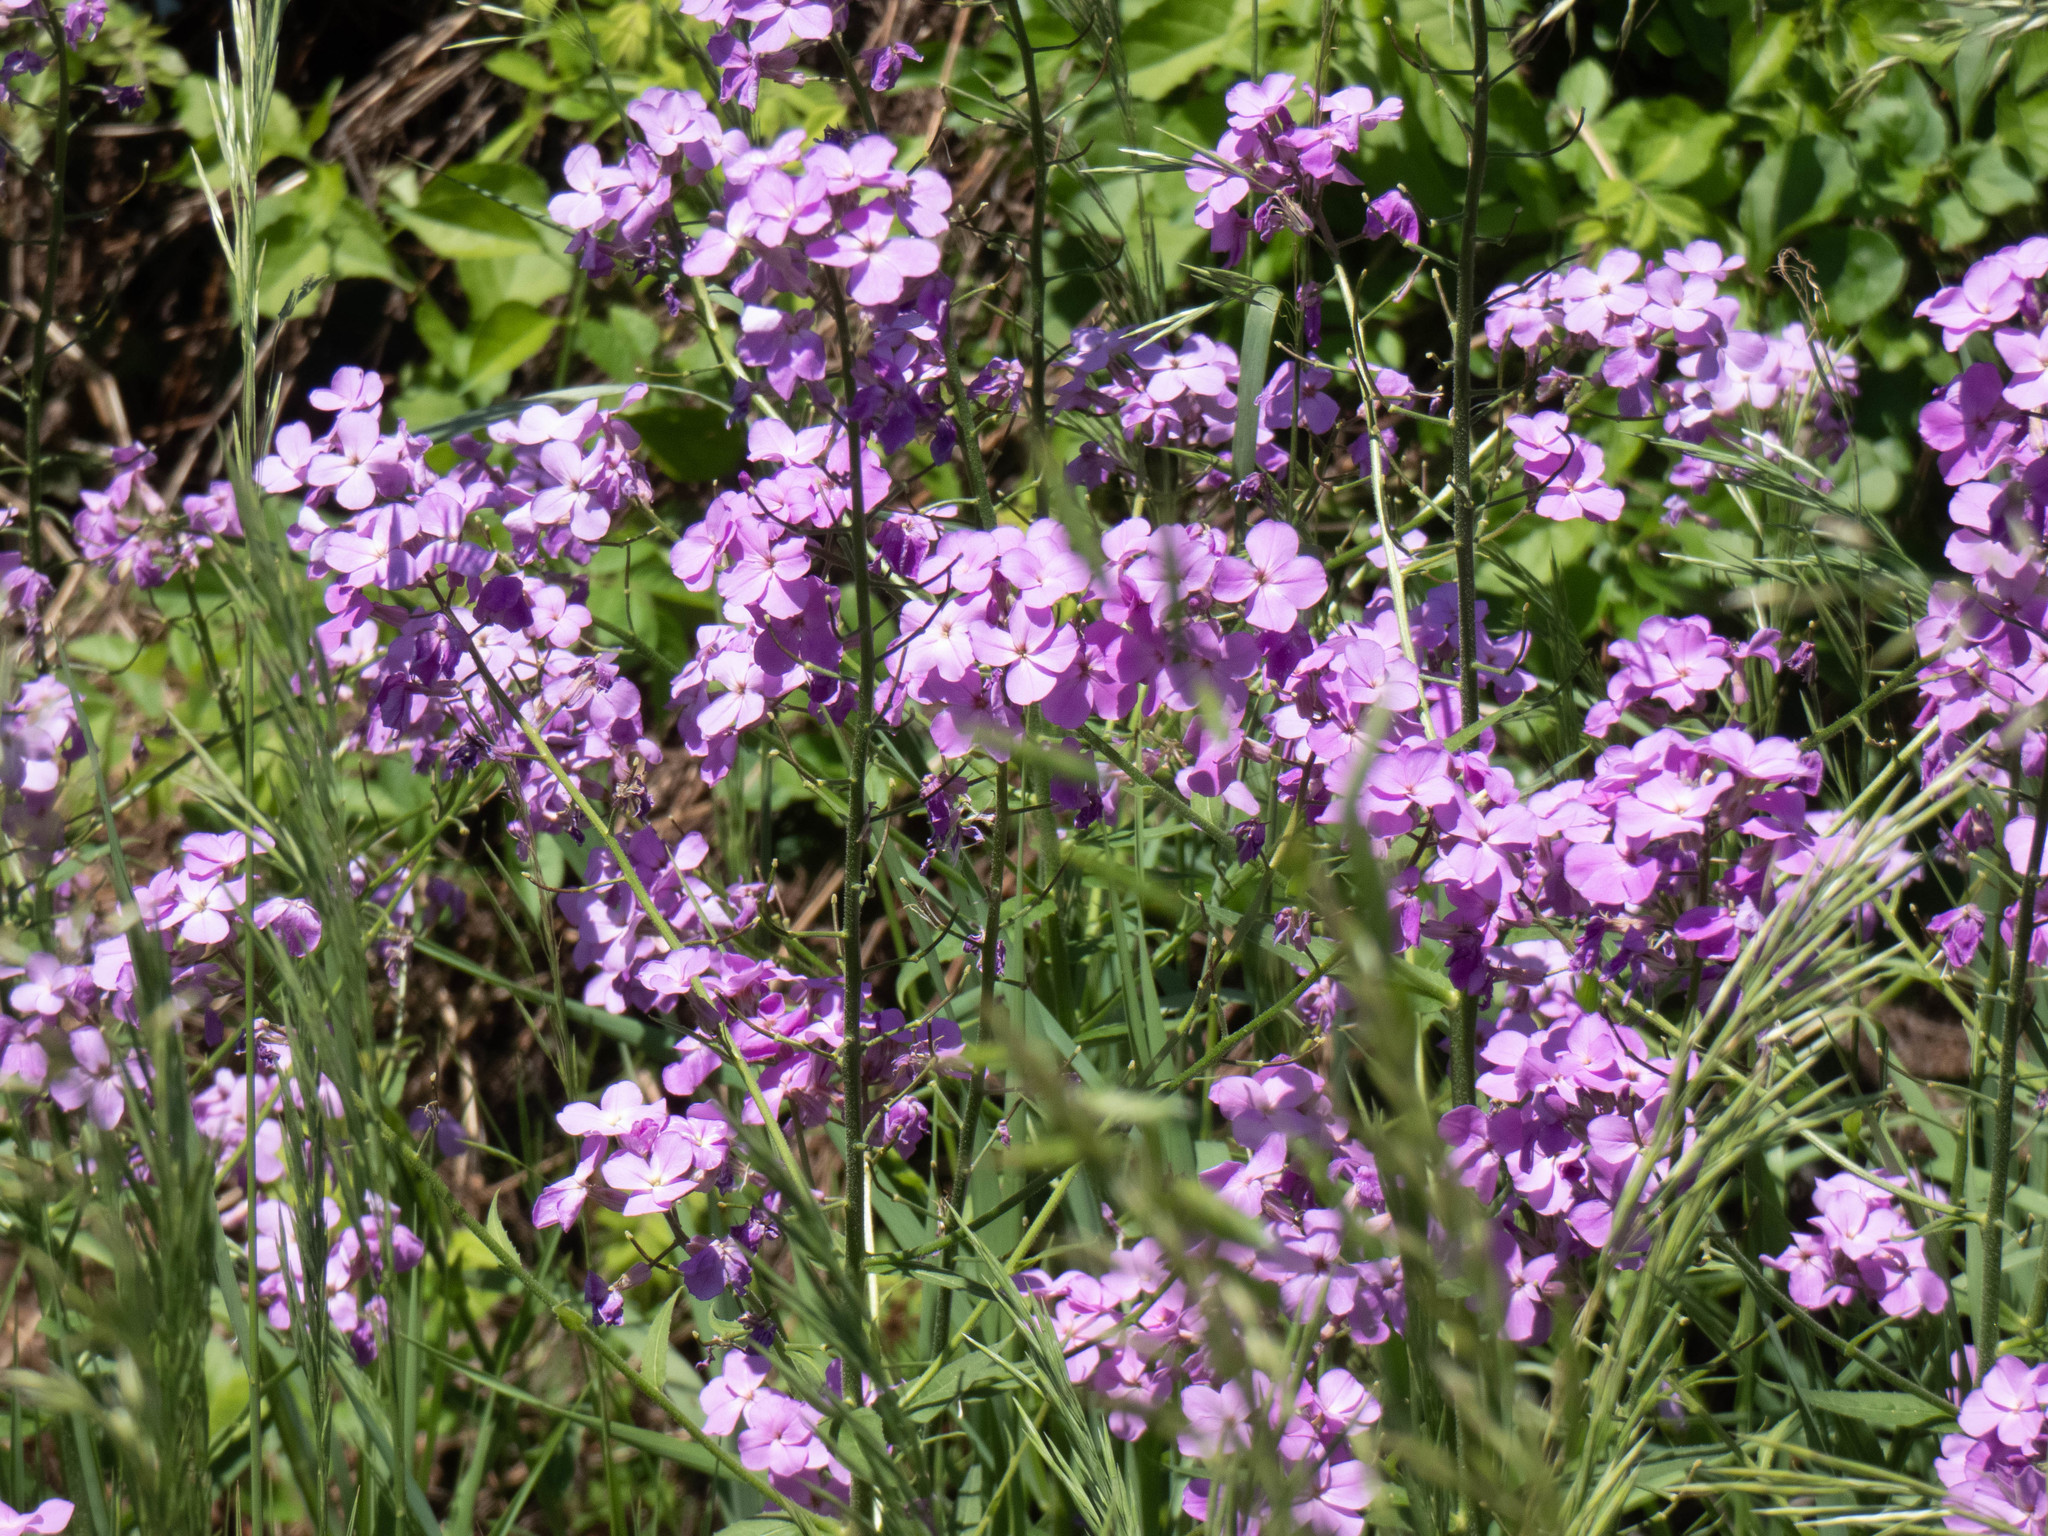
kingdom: Plantae
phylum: Tracheophyta
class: Magnoliopsida
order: Brassicales
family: Brassicaceae
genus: Hesperis
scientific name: Hesperis matronalis
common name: Dame's-violet
